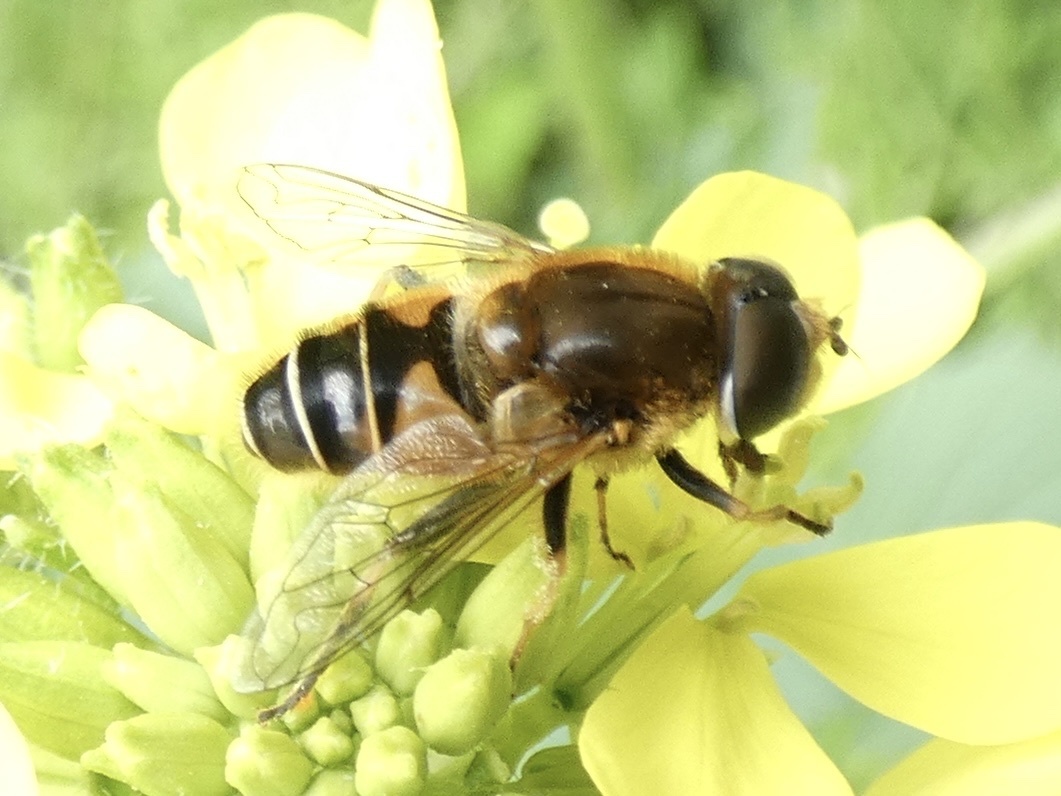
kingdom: Animalia
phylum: Arthropoda
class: Insecta
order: Diptera
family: Syrphidae
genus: Eristalis
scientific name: Eristalis nemorum
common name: Orange-spined drone fly
